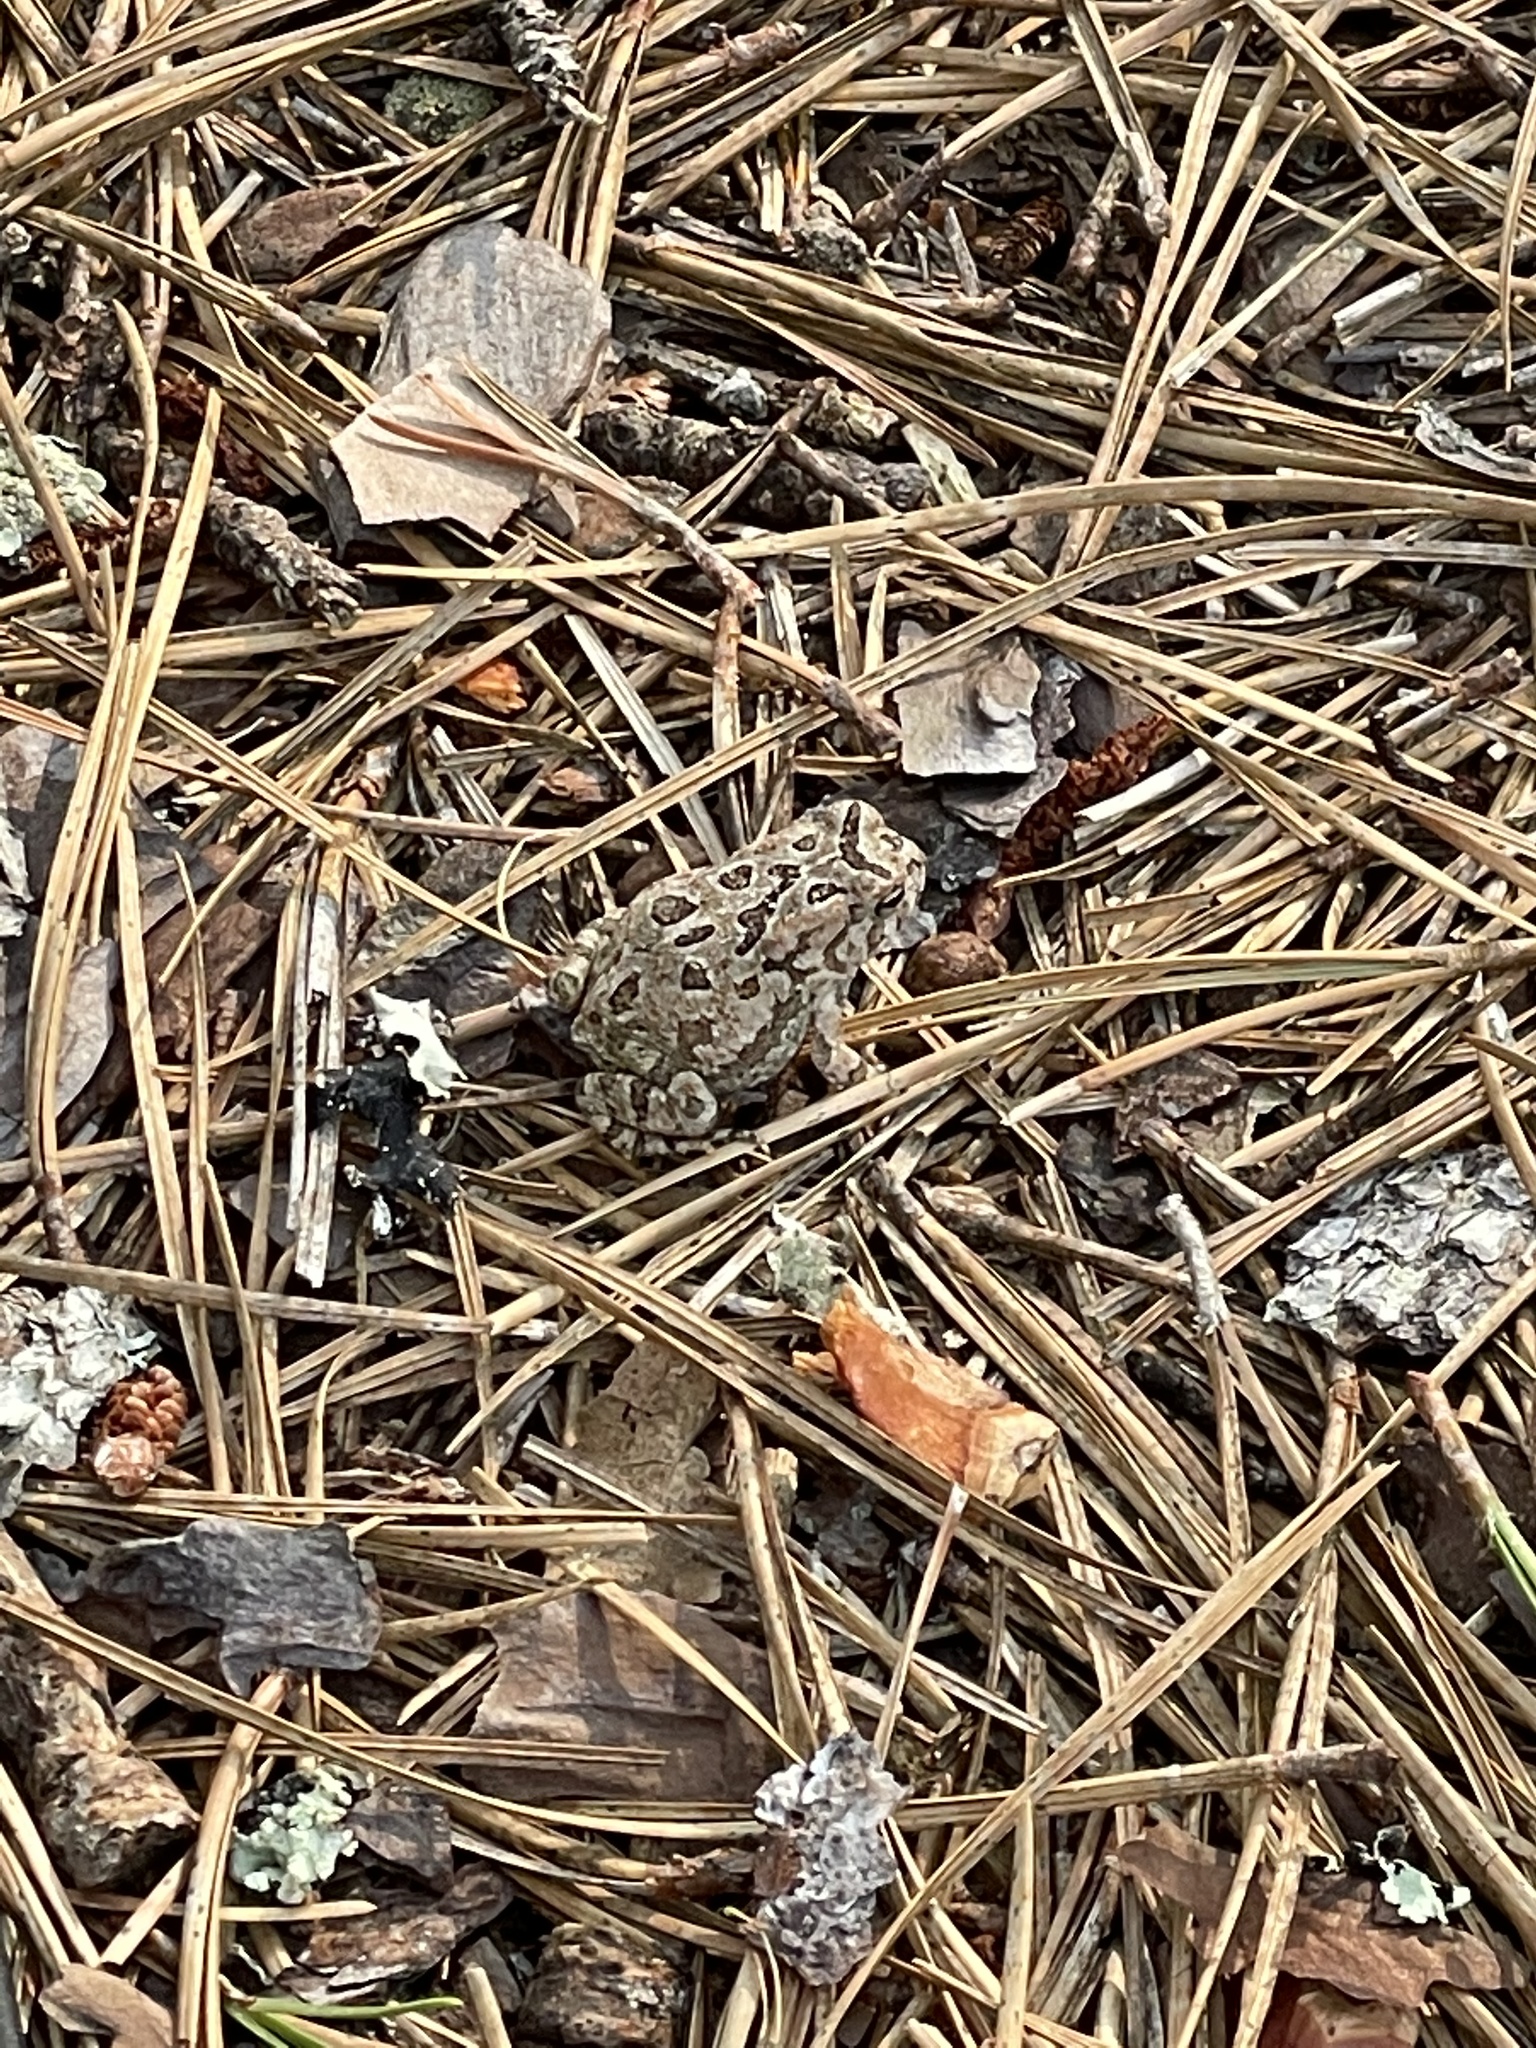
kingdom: Animalia
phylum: Chordata
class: Amphibia
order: Anura
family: Bufonidae
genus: Anaxyrus
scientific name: Anaxyrus fowleri
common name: Fowler's toad
